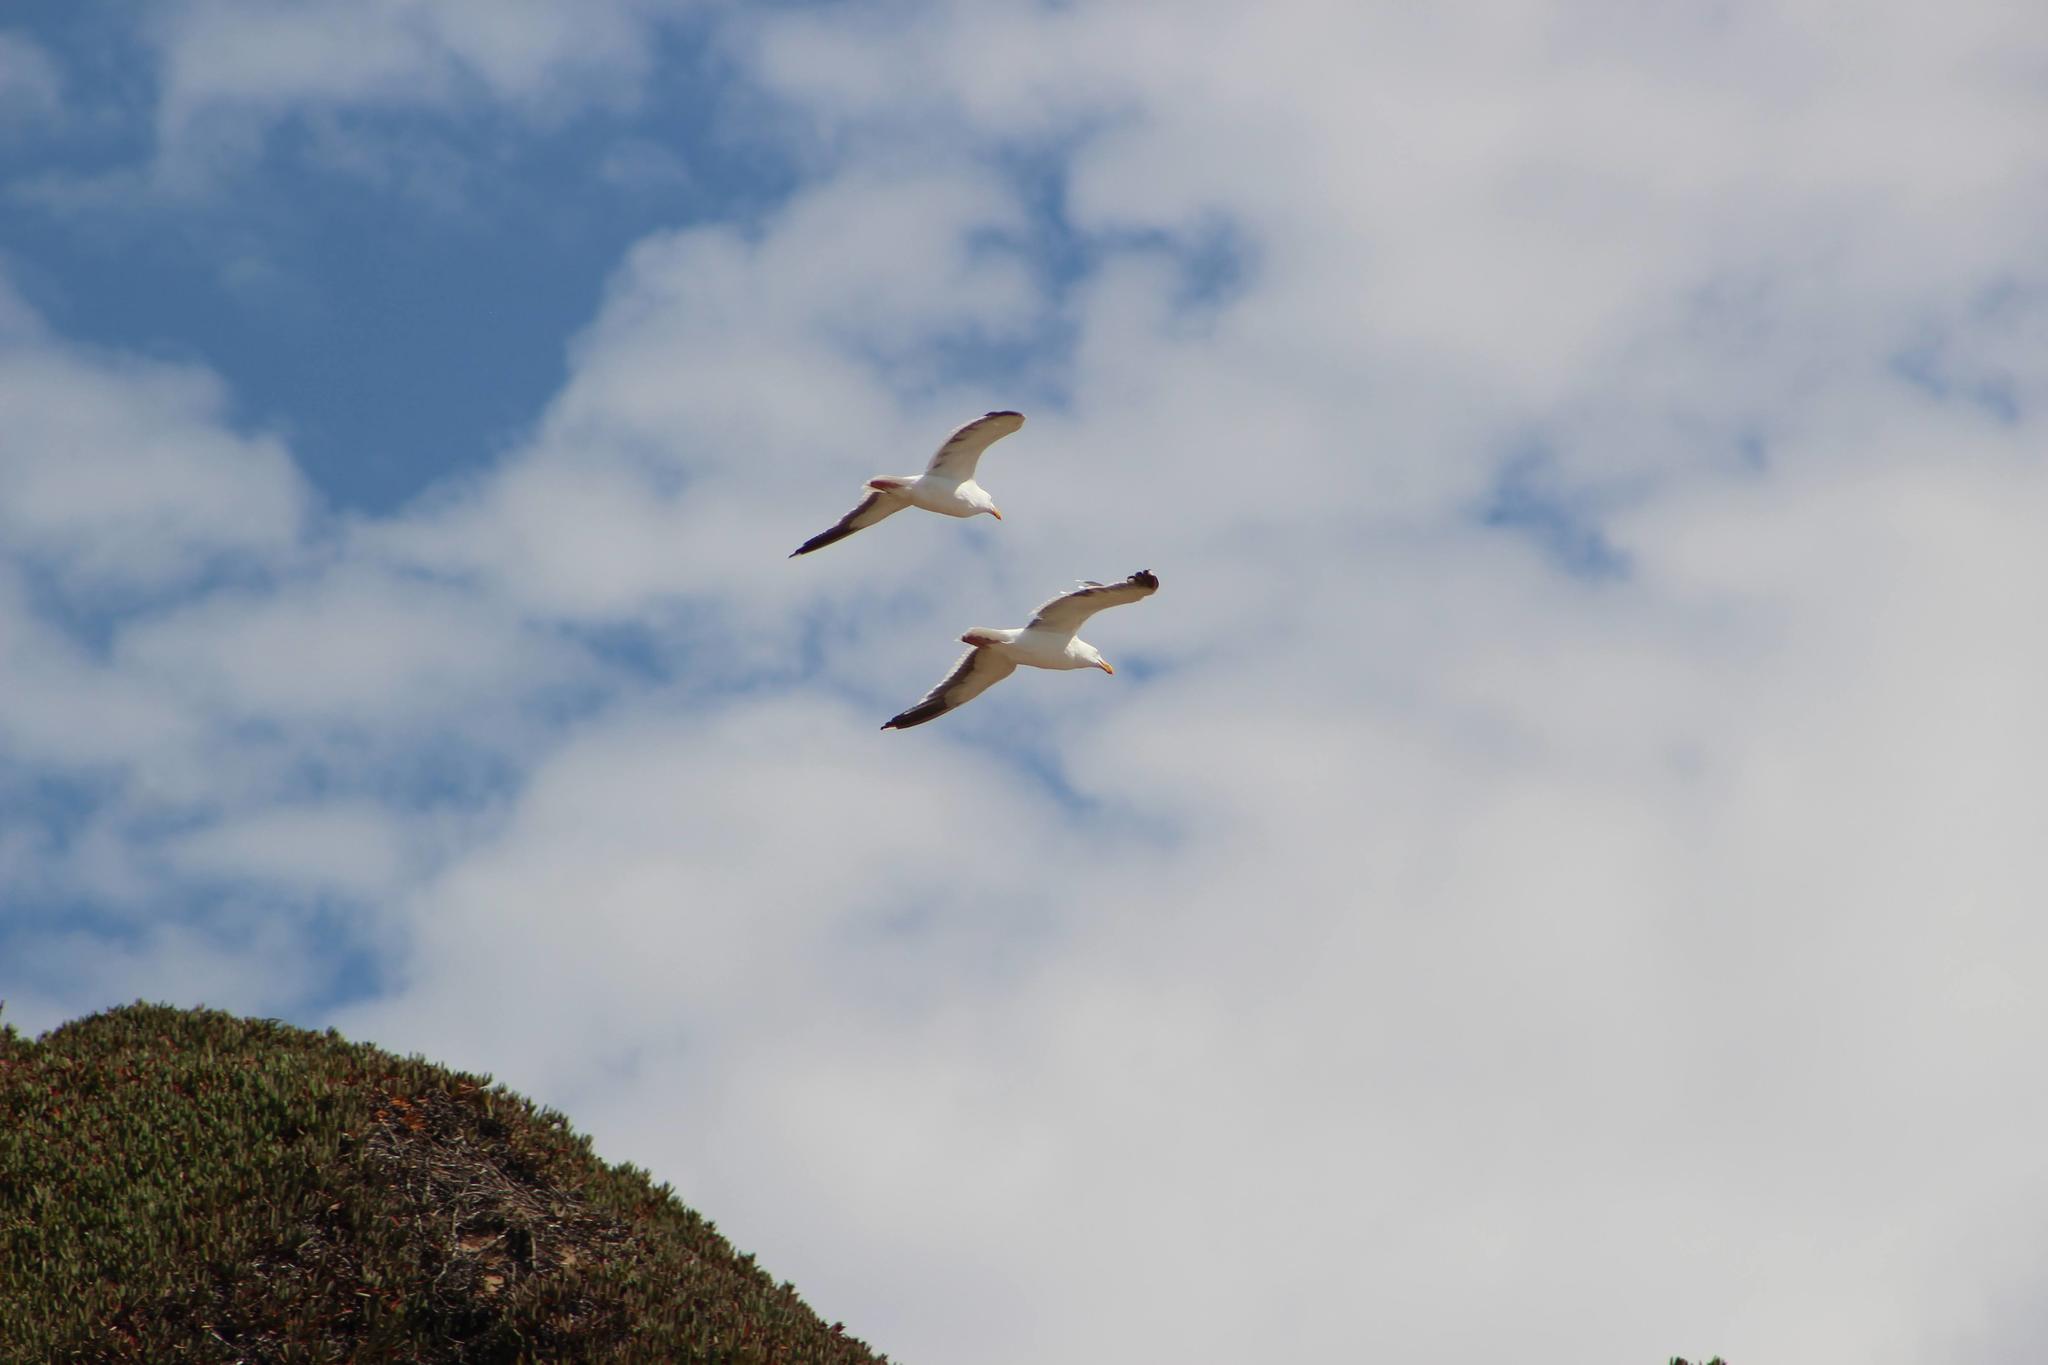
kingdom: Animalia
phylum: Chordata
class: Aves
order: Charadriiformes
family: Laridae
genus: Larus
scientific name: Larus occidentalis
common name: Western gull
